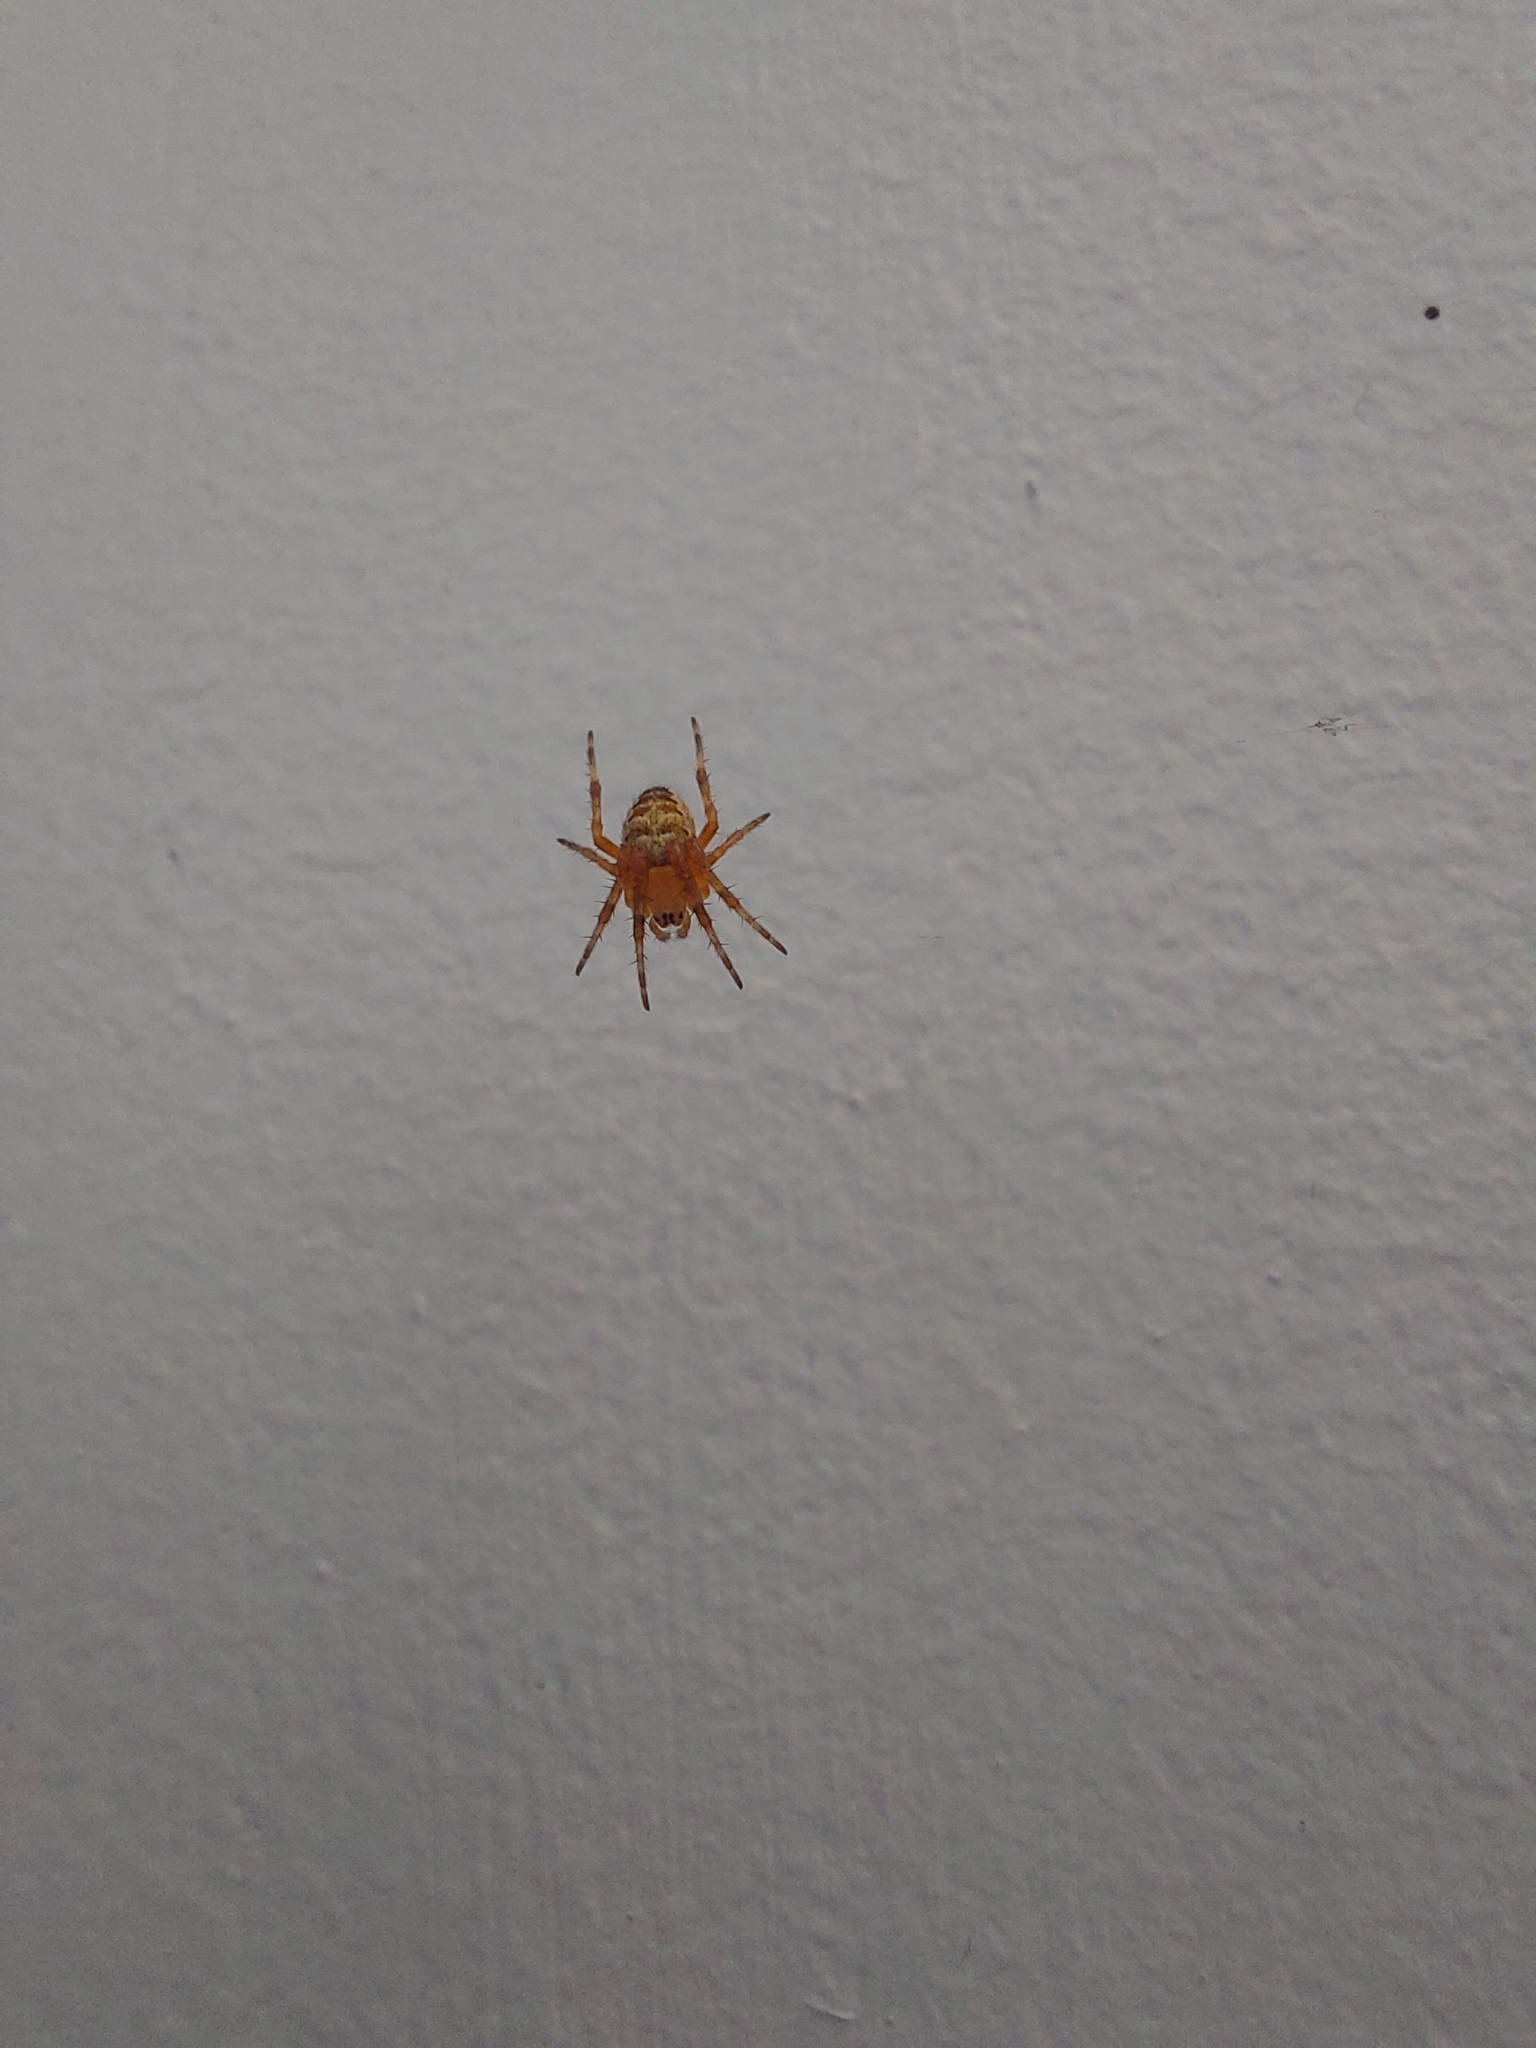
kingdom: Animalia
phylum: Arthropoda
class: Arachnida
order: Araneae
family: Araneidae
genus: Araneus
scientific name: Araneus diadematus
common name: Cross orbweaver
